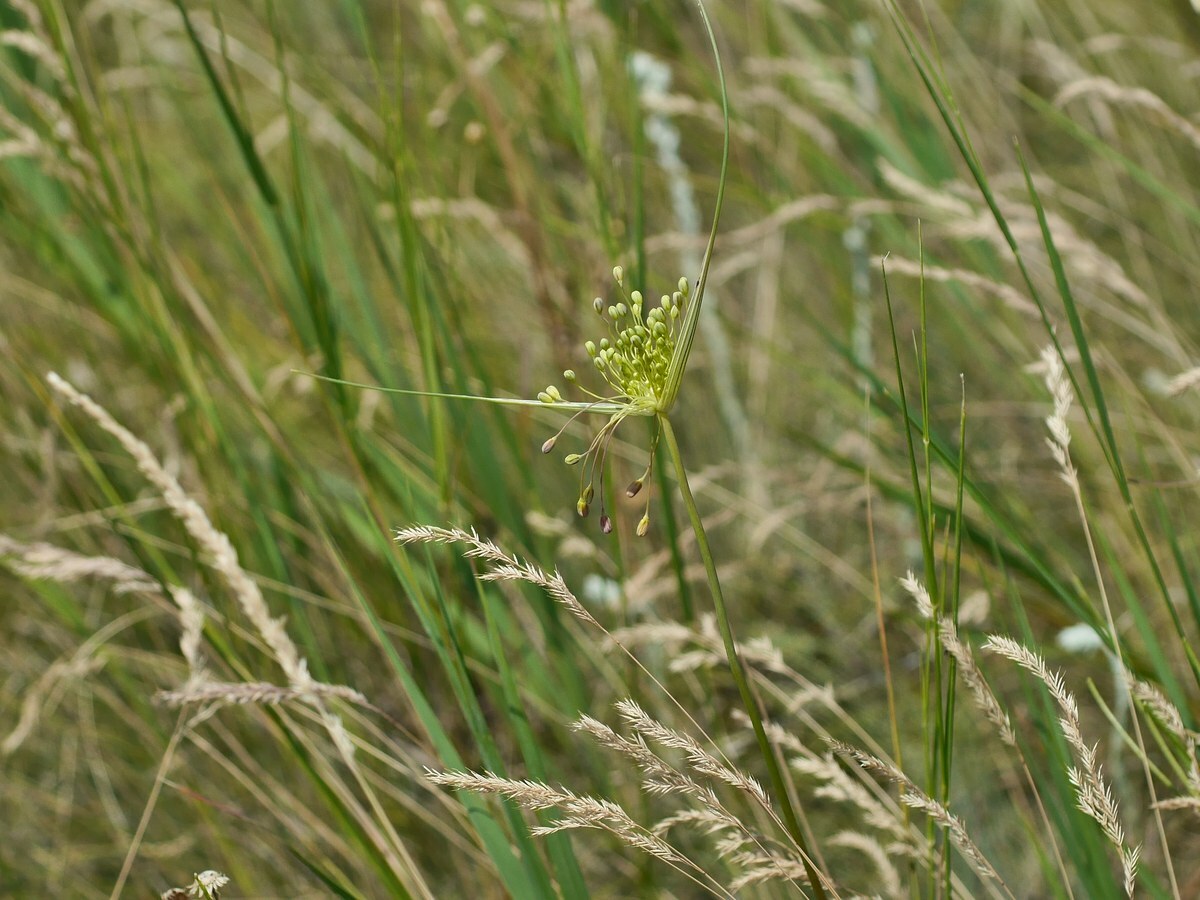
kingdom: Plantae
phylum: Tracheophyta
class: Liliopsida
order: Asparagales
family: Amaryllidaceae
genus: Allium
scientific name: Allium flavum
